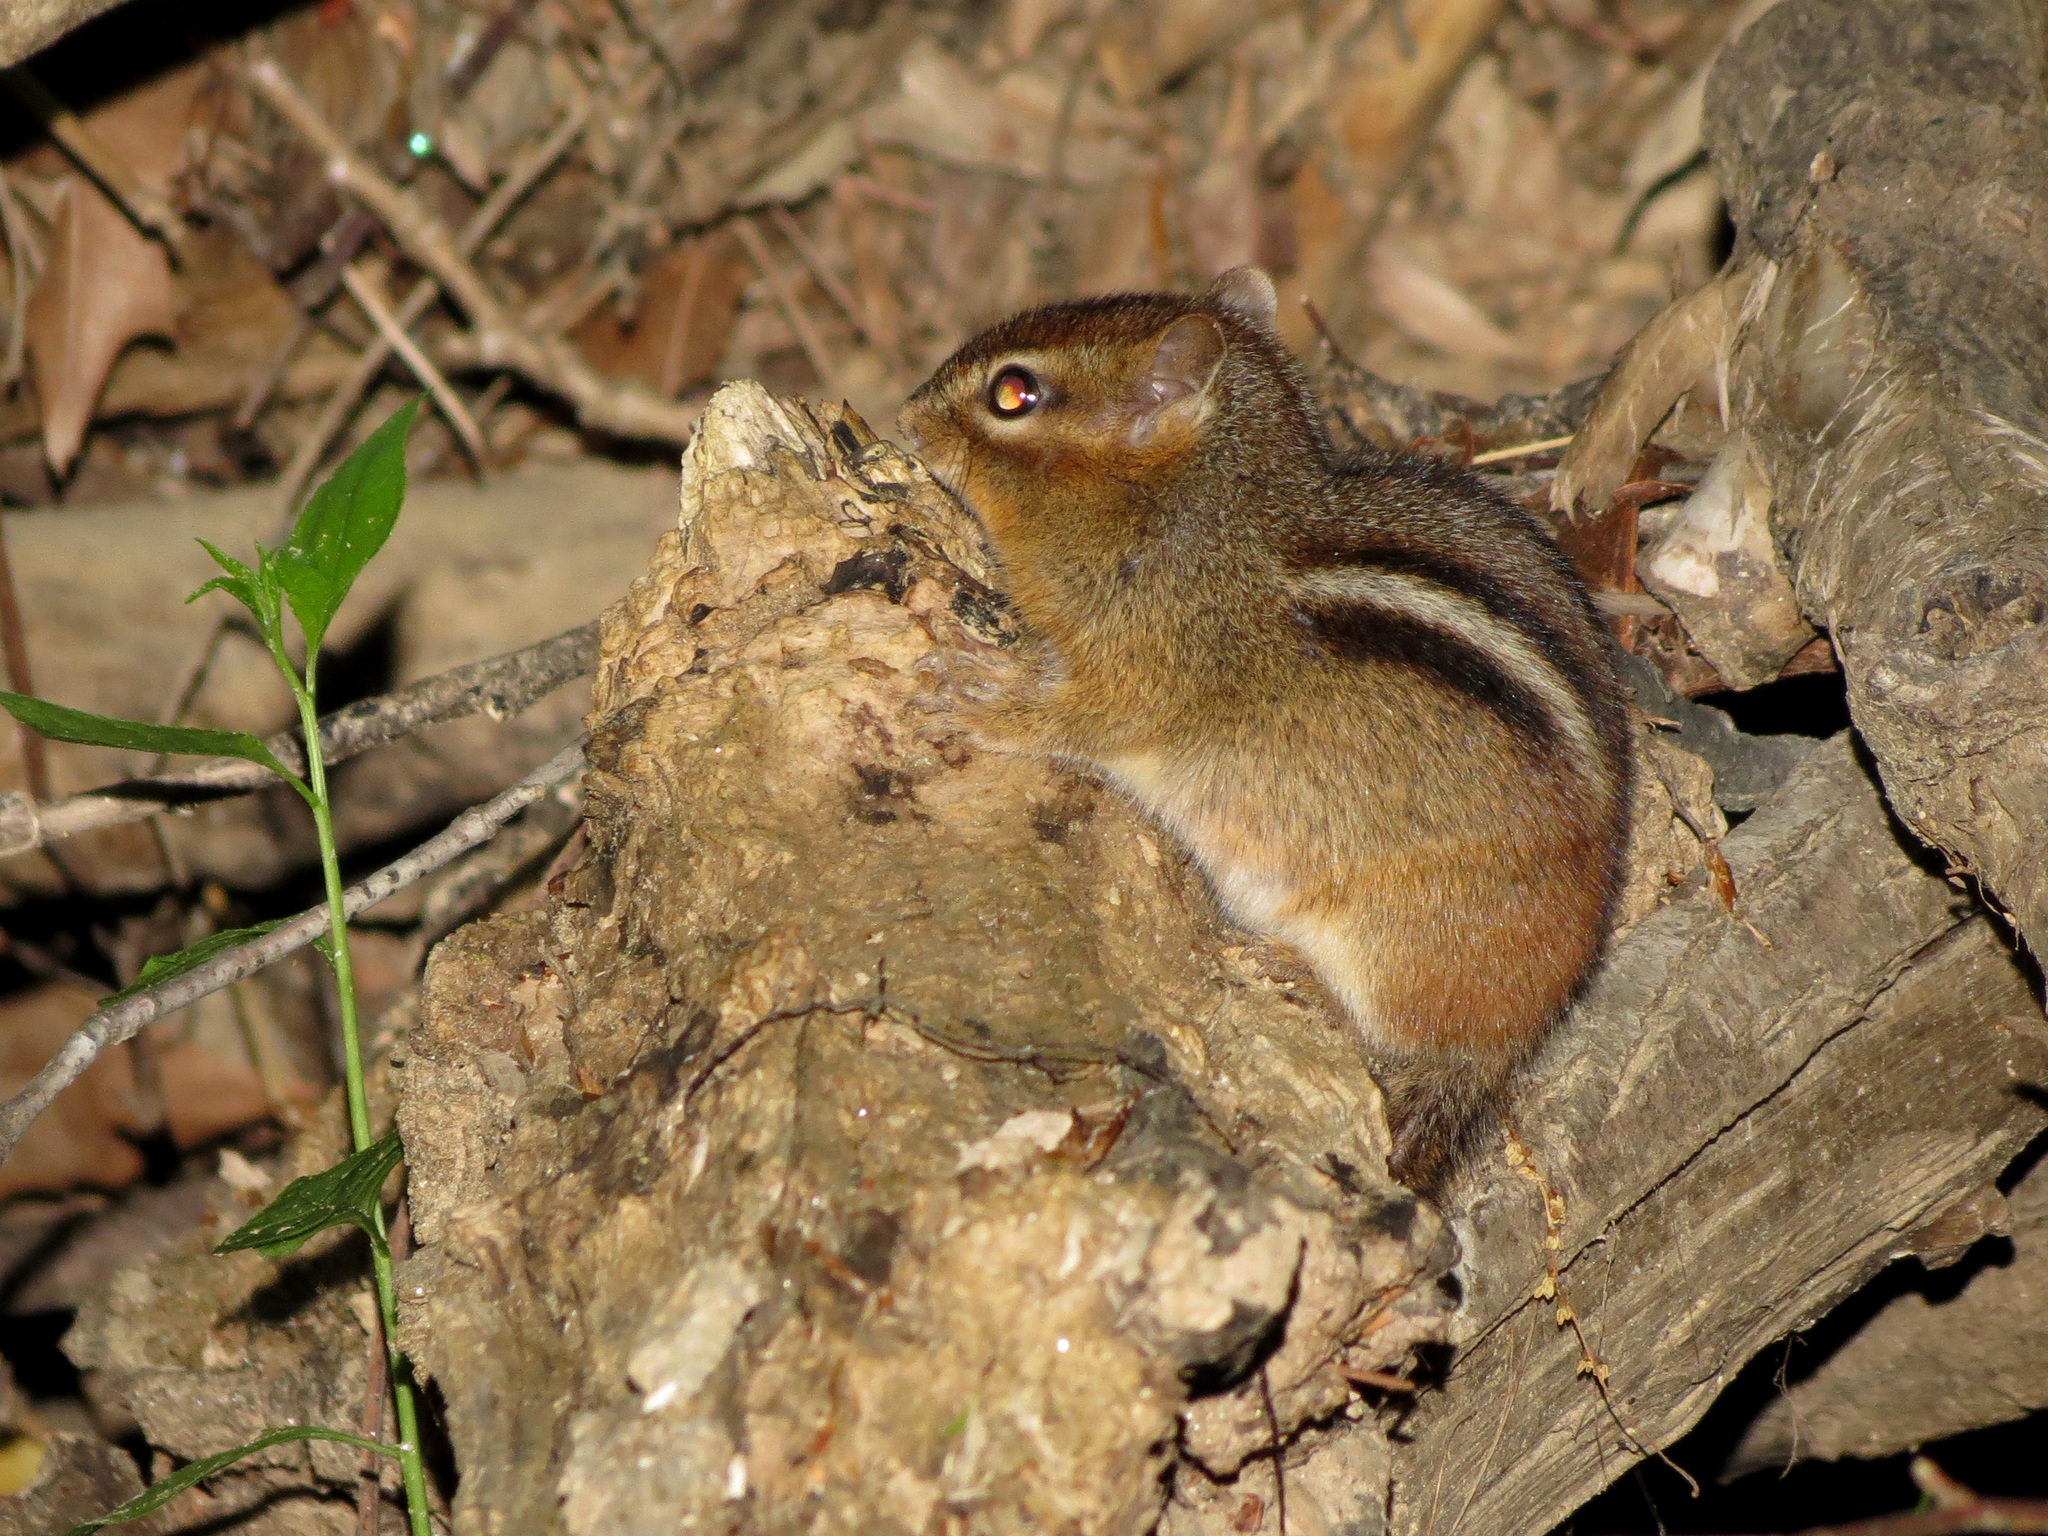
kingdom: Animalia
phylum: Chordata
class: Mammalia
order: Rodentia
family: Sciuridae
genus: Tamias
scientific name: Tamias striatus
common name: Eastern chipmunk
